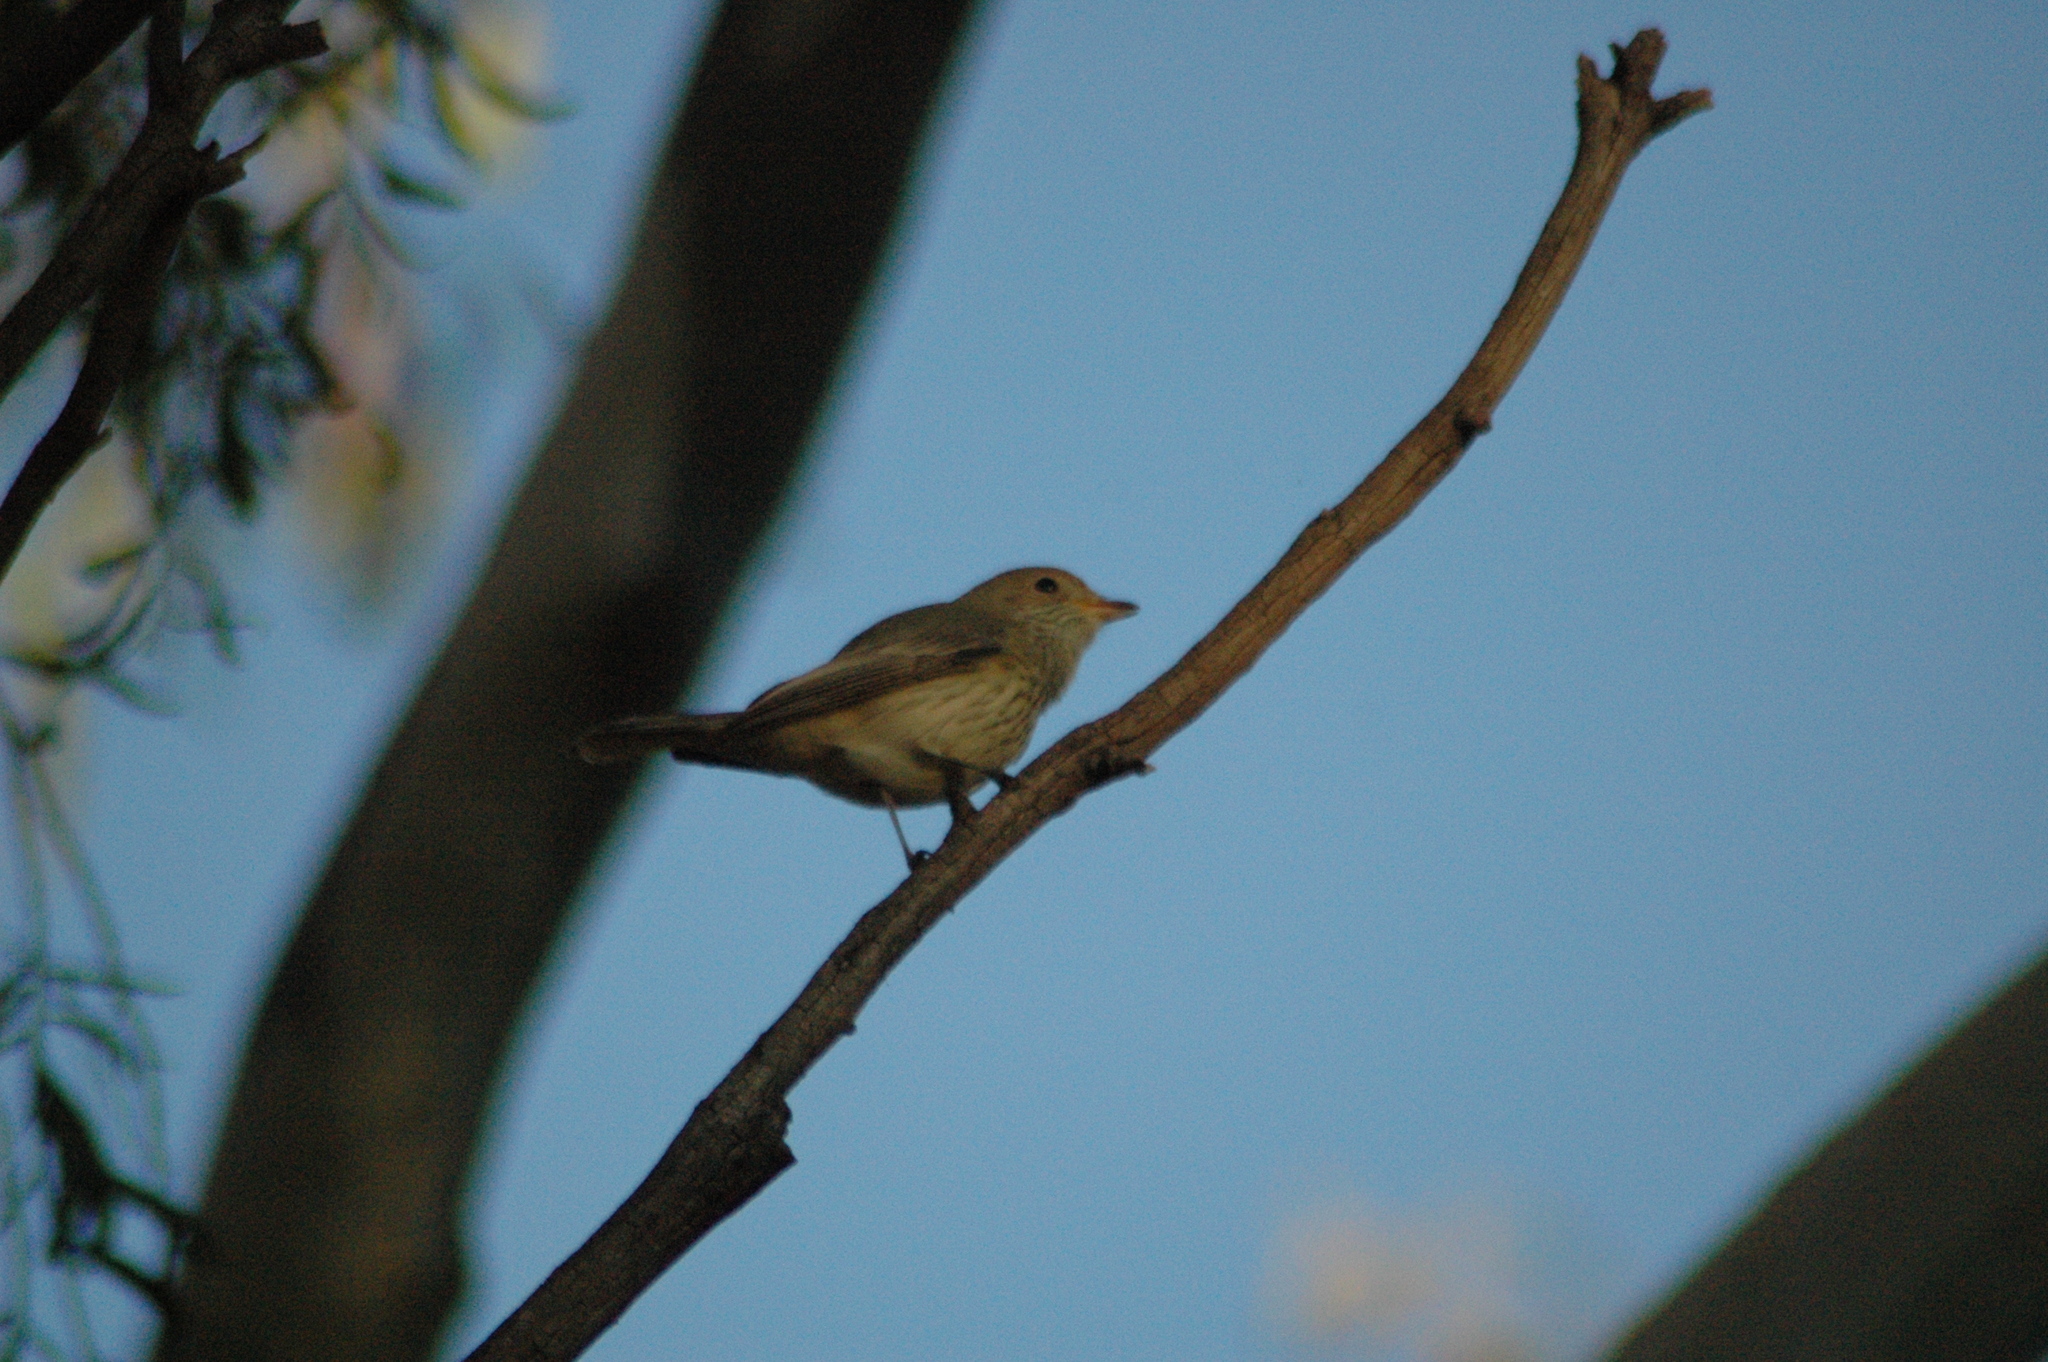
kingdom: Animalia
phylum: Chordata
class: Aves
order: Passeriformes
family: Pachycephalidae
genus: Pachycephala
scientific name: Pachycephala rufiventris
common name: Rufous whistler
